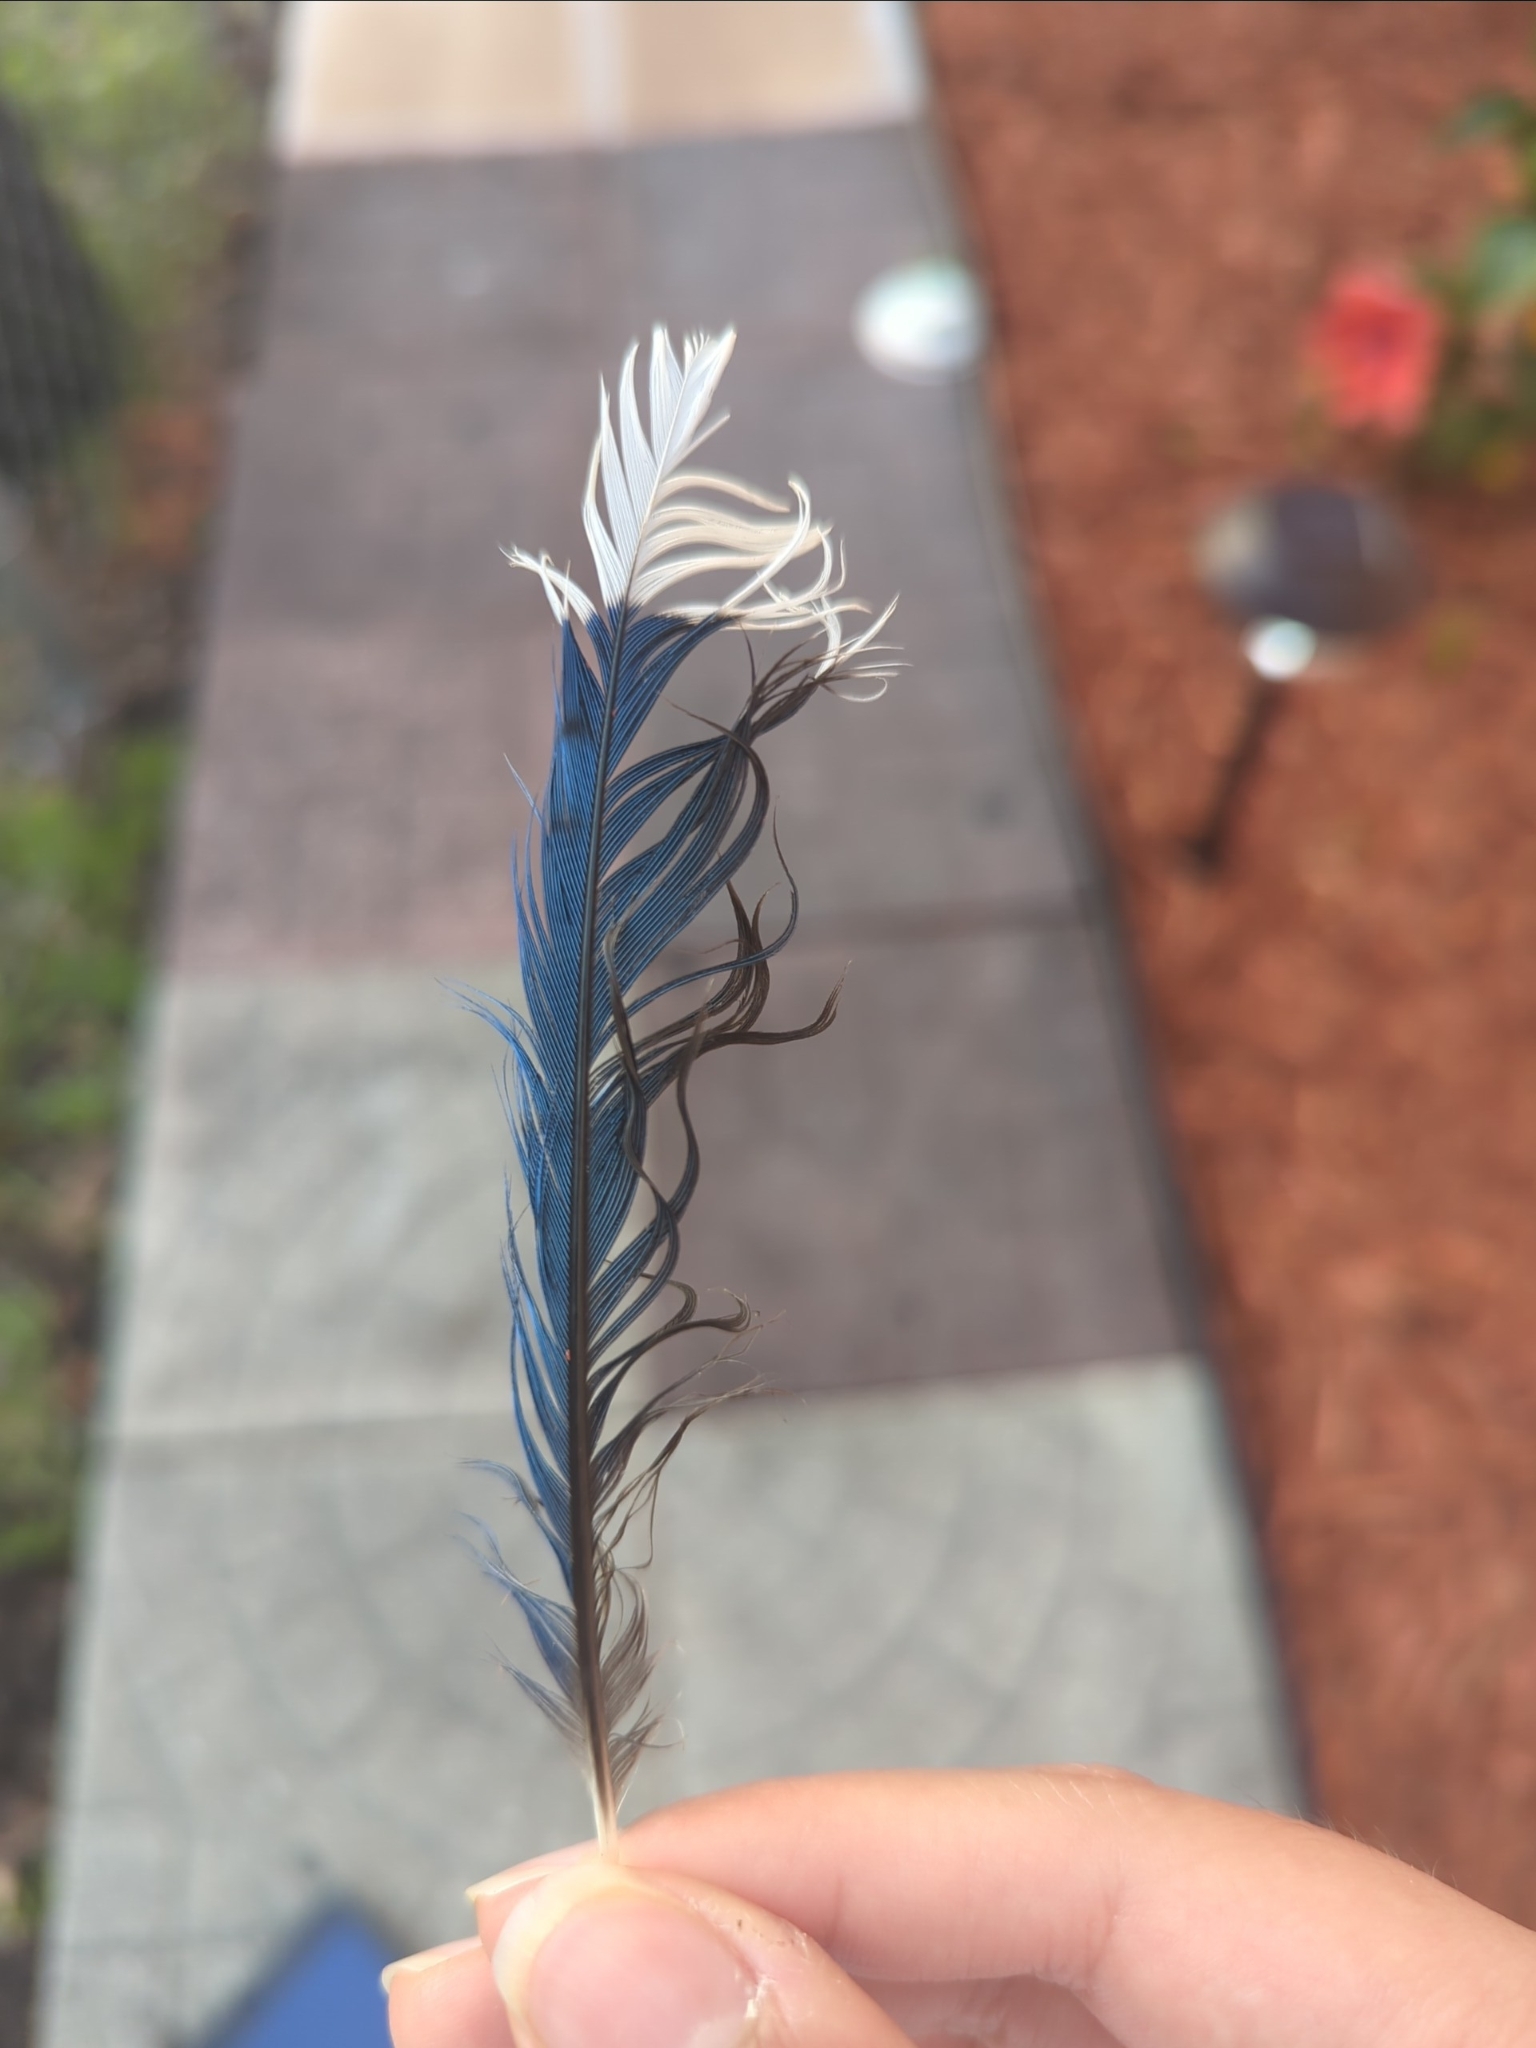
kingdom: Animalia
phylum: Chordata
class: Aves
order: Passeriformes
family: Corvidae
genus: Cyanocitta
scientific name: Cyanocitta cristata
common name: Blue jay
